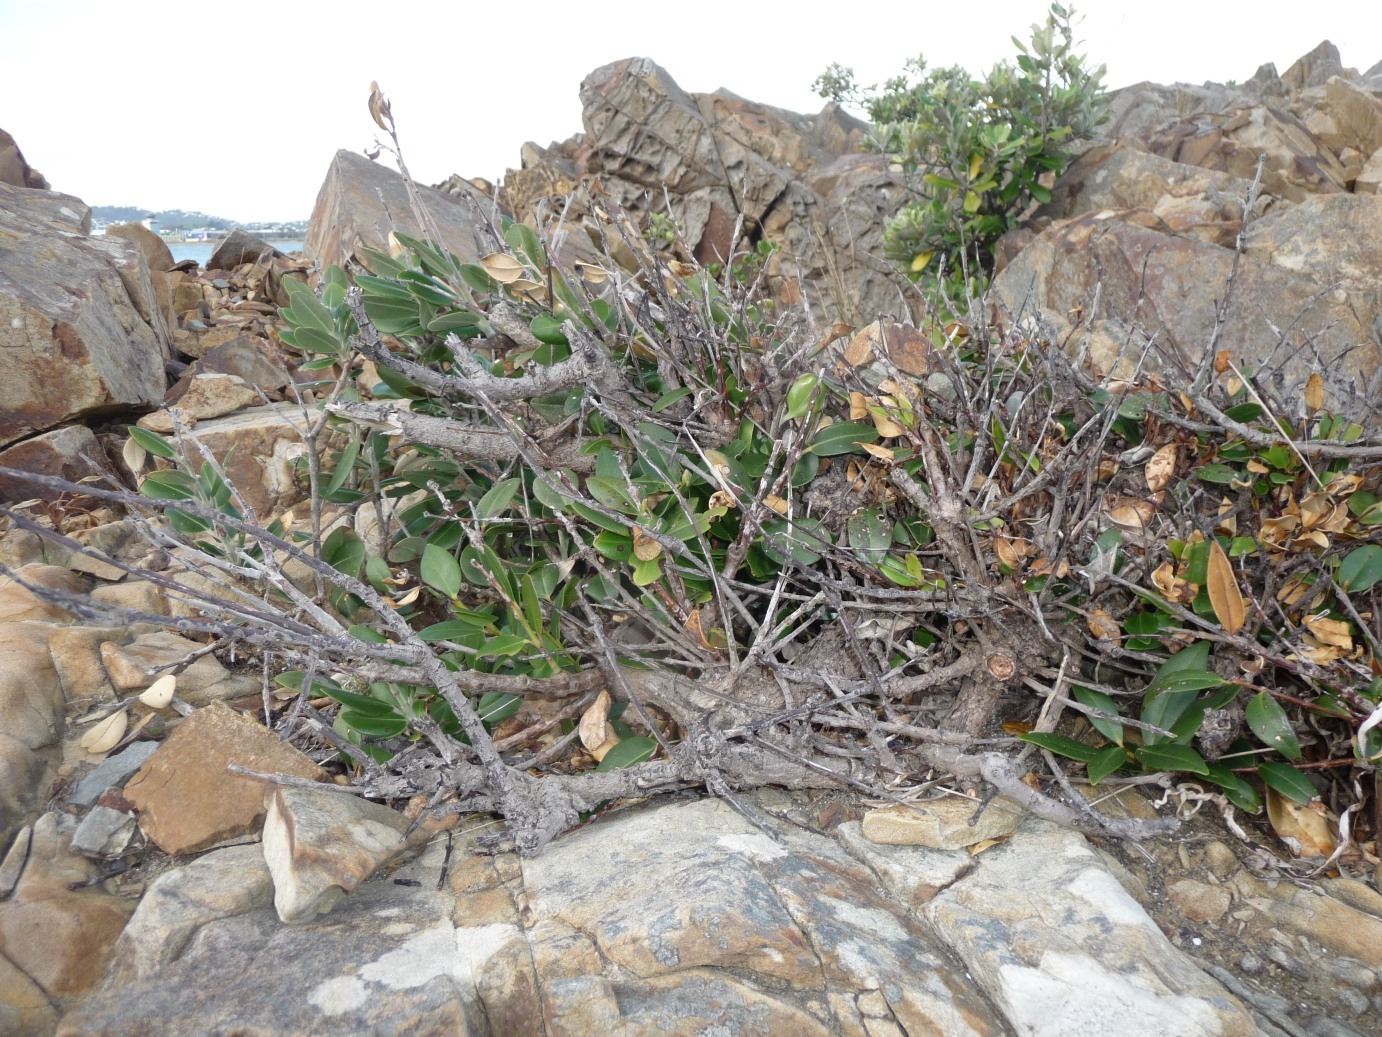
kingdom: Plantae
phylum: Tracheophyta
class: Magnoliopsida
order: Myrtales
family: Myrtaceae
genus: Metrosideros
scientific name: Metrosideros excelsa
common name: New zealand christmastree
